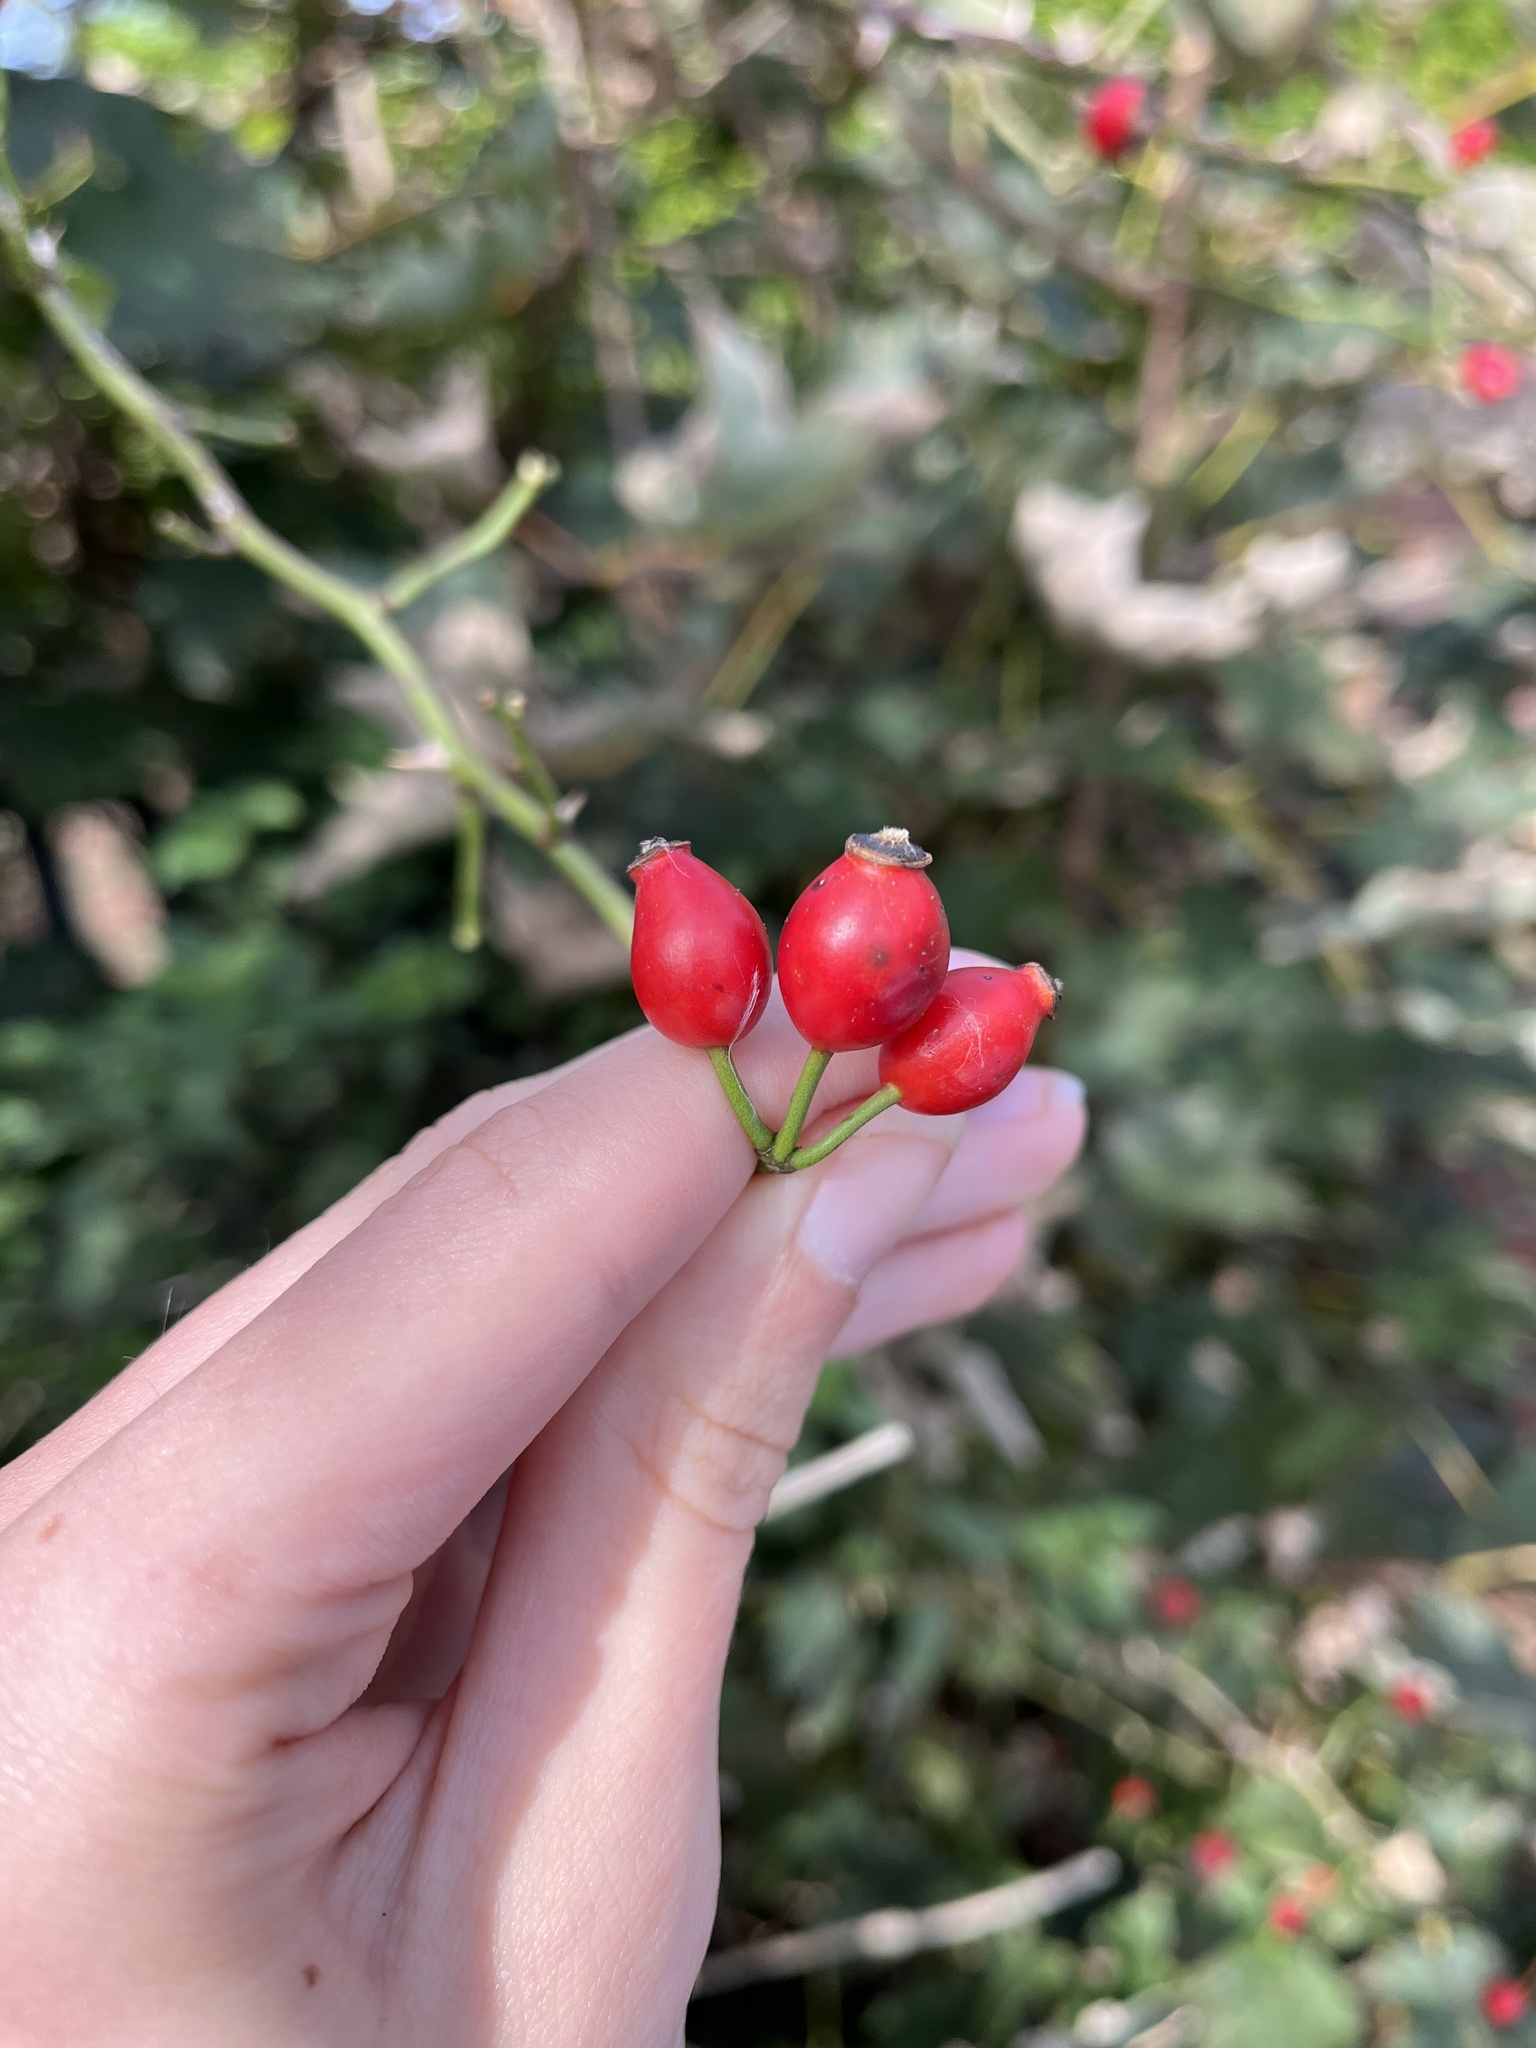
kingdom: Plantae
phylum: Tracheophyta
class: Magnoliopsida
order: Rosales
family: Rosaceae
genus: Rosa
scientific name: Rosa canina
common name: Dog rose
